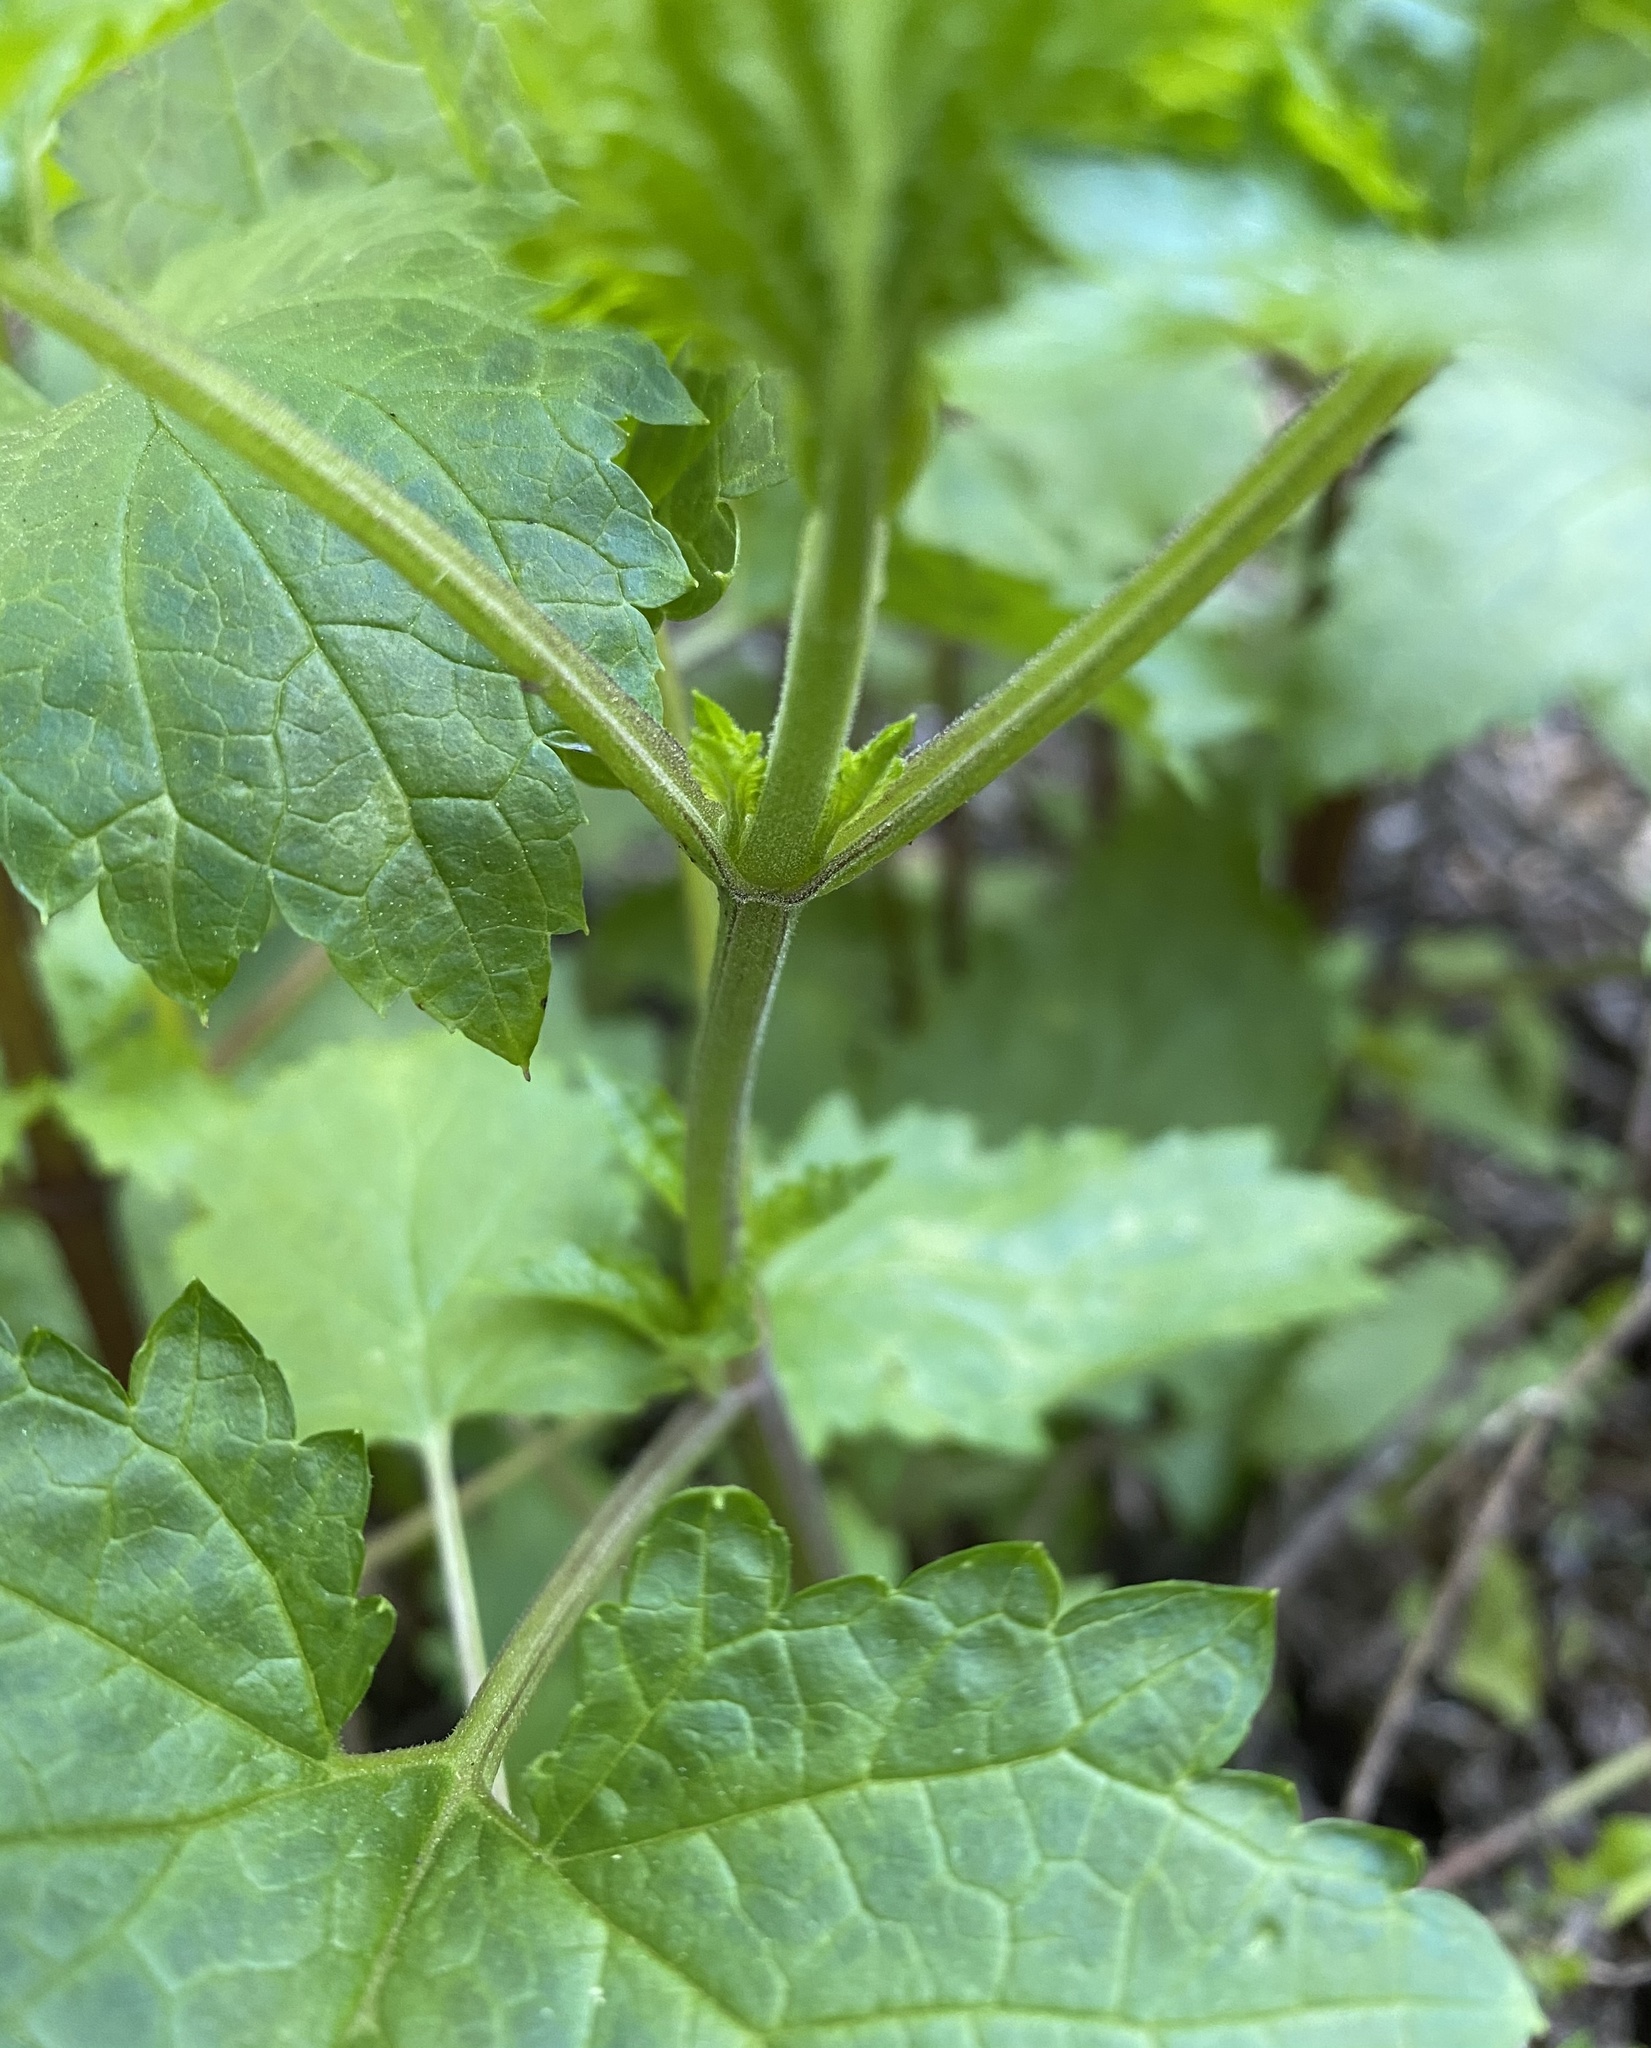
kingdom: Plantae
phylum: Tracheophyta
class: Magnoliopsida
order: Lamiales
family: Scrophulariaceae
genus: Scrophularia
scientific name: Scrophularia californica
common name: California figwort
